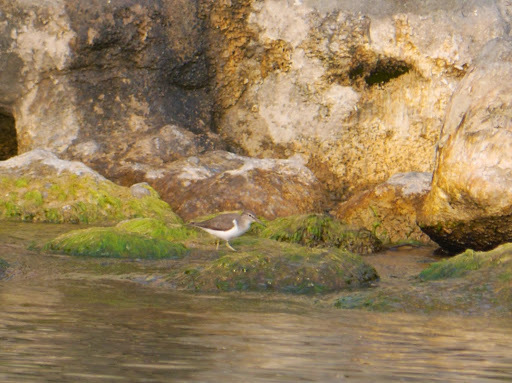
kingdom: Animalia
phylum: Chordata
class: Aves
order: Charadriiformes
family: Scolopacidae
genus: Actitis
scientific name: Actitis hypoleucos
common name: Common sandpiper
